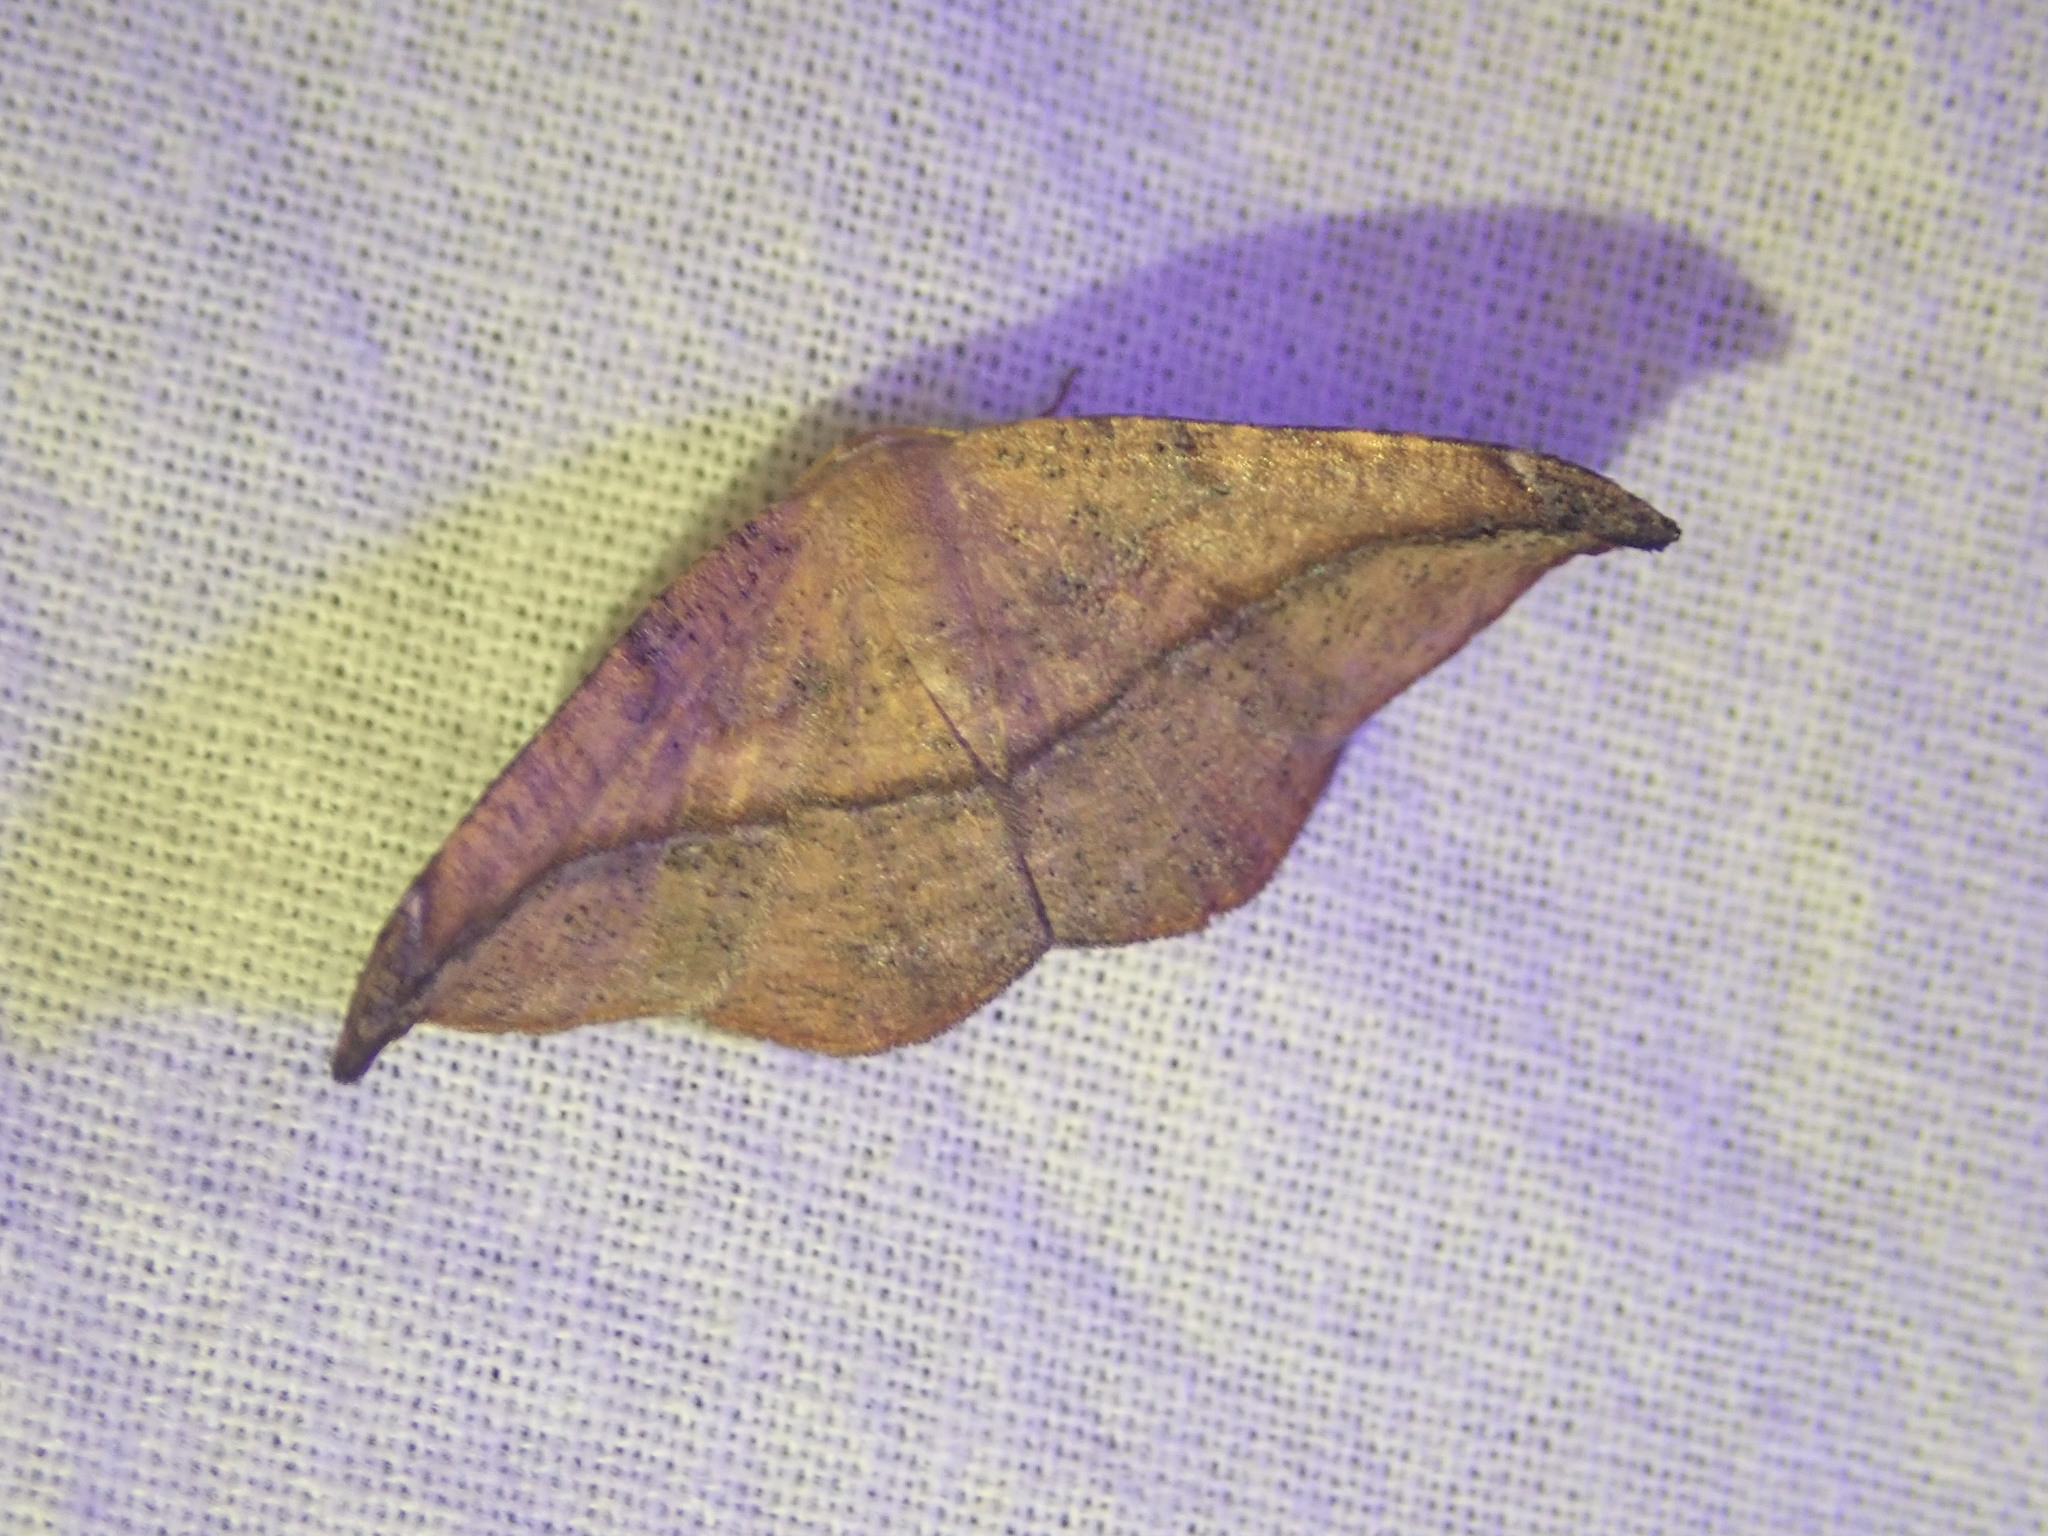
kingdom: Animalia
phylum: Arthropoda
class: Insecta
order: Lepidoptera
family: Geometridae
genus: Patalene
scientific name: Patalene olyzonaria
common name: Juniper geometer moth
